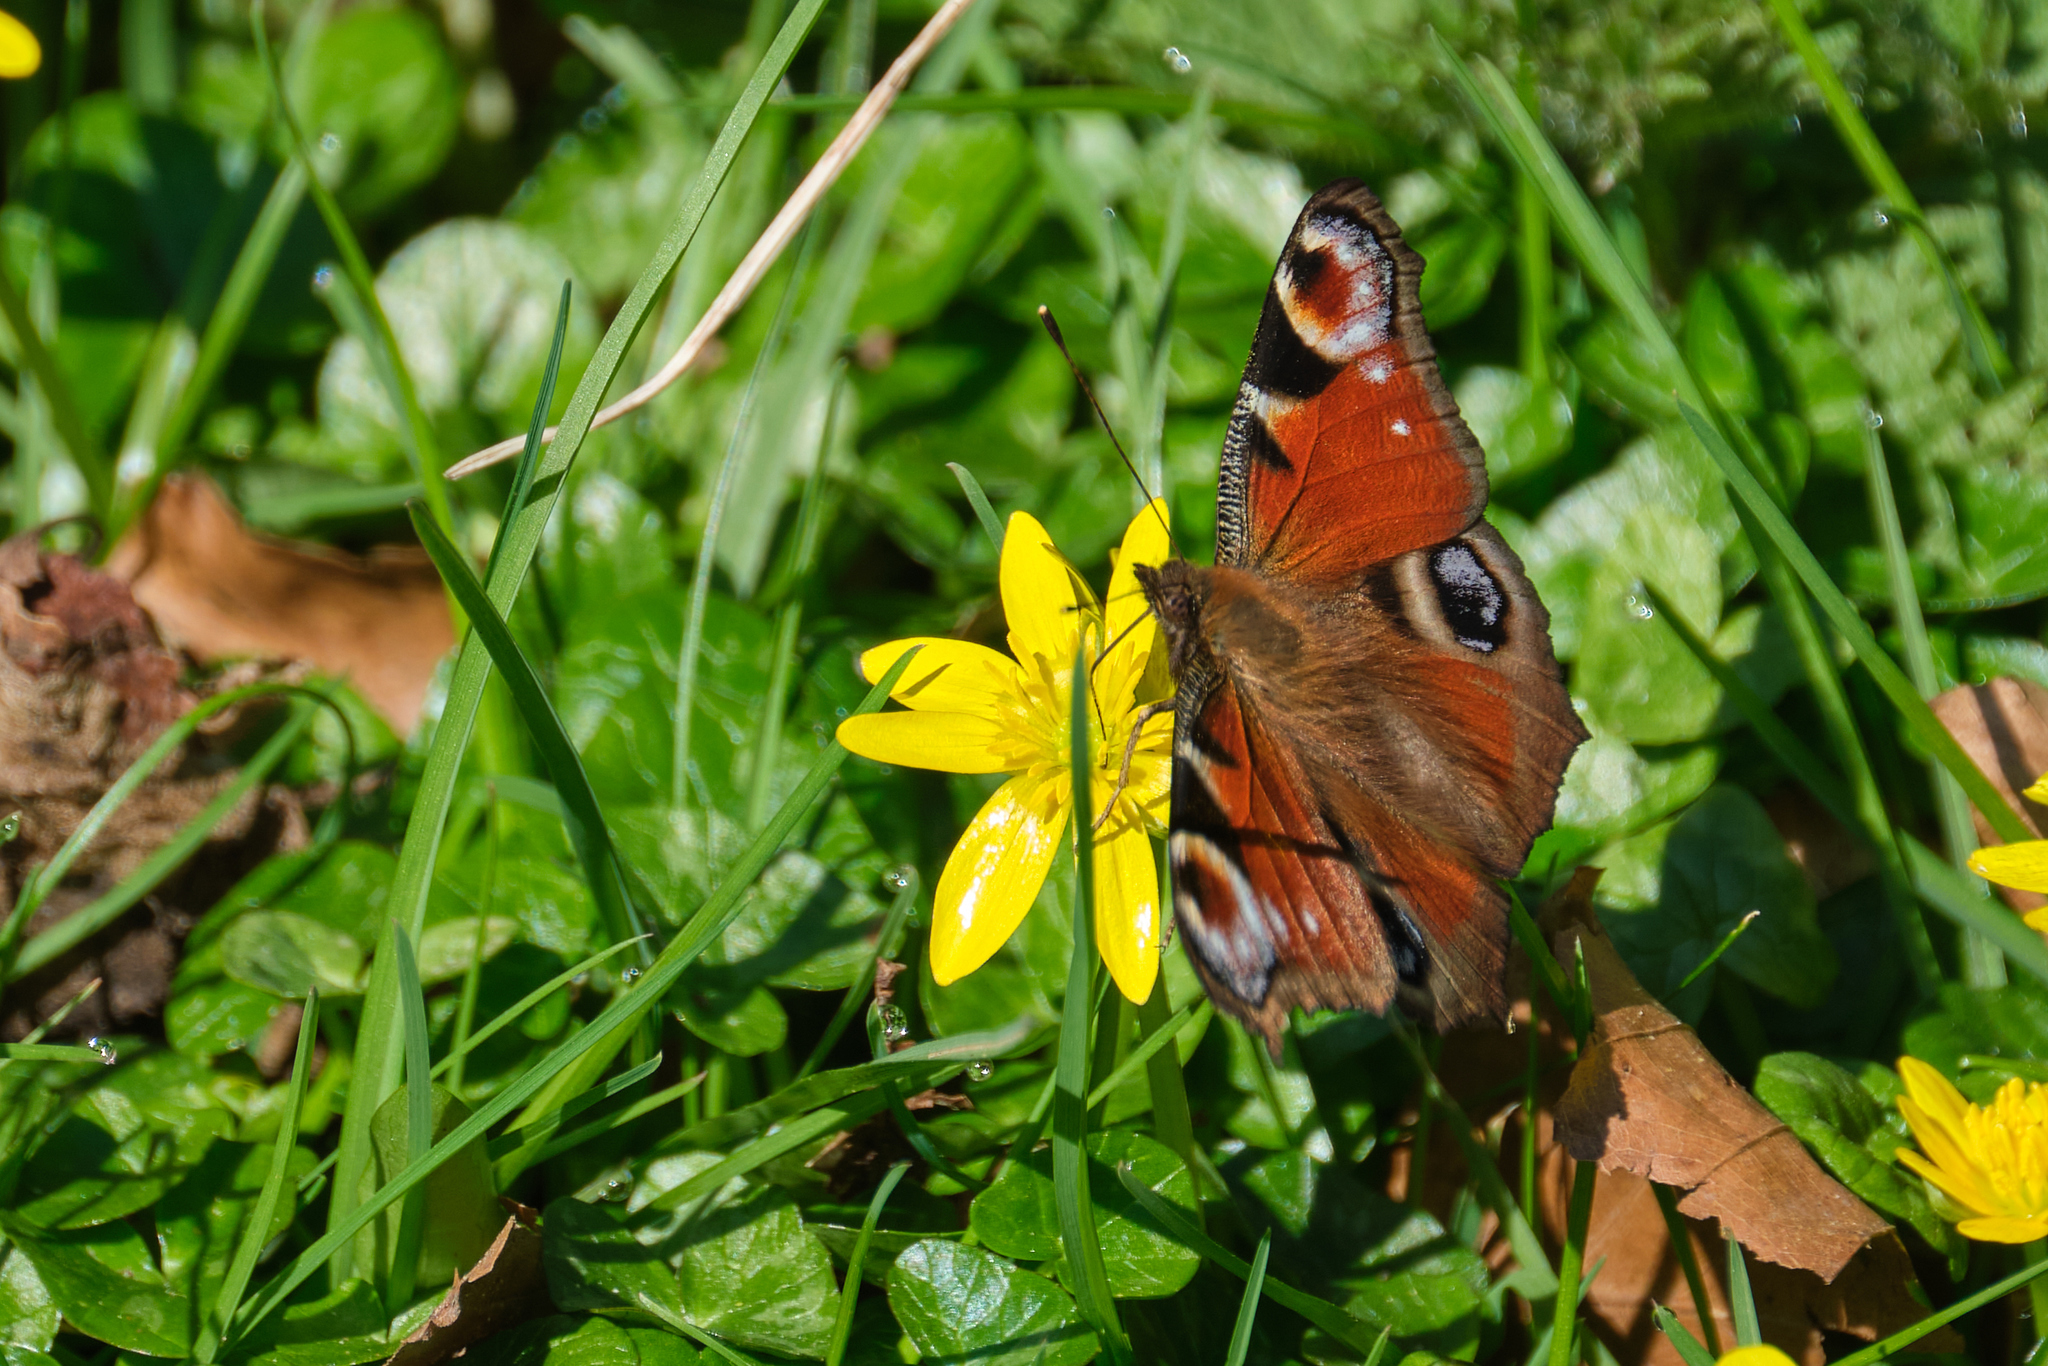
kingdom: Animalia
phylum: Arthropoda
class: Insecta
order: Lepidoptera
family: Nymphalidae
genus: Aglais
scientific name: Aglais io
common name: Peacock
